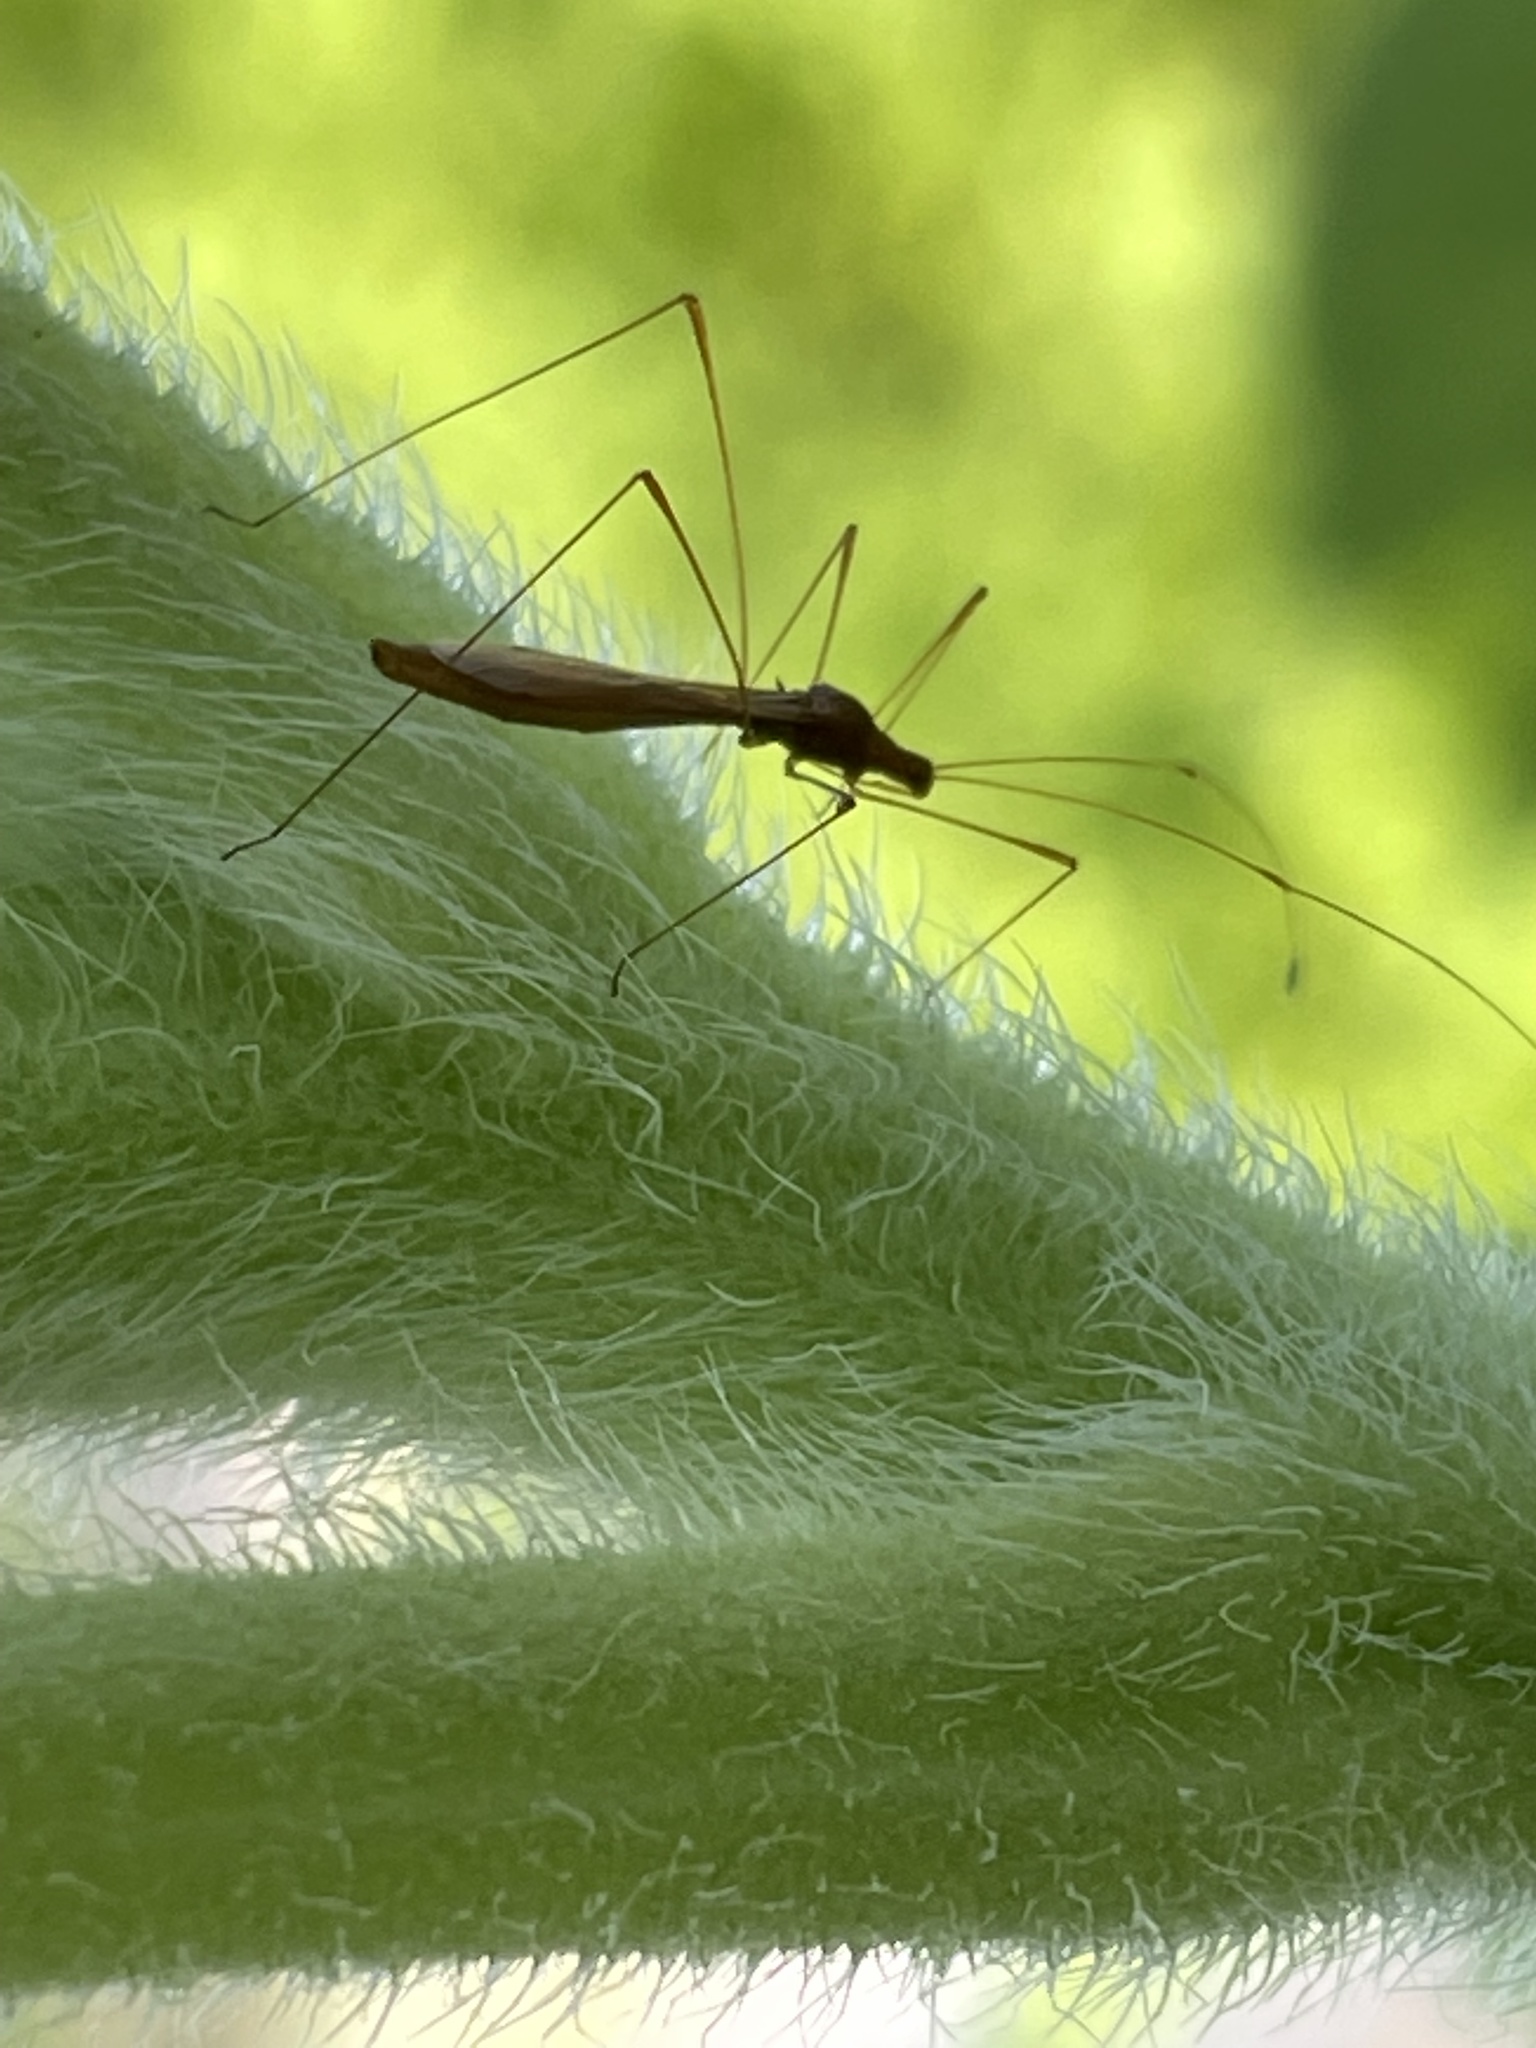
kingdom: Animalia
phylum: Arthropoda
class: Insecta
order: Hemiptera
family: Berytidae
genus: Jalysus
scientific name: Jalysus
